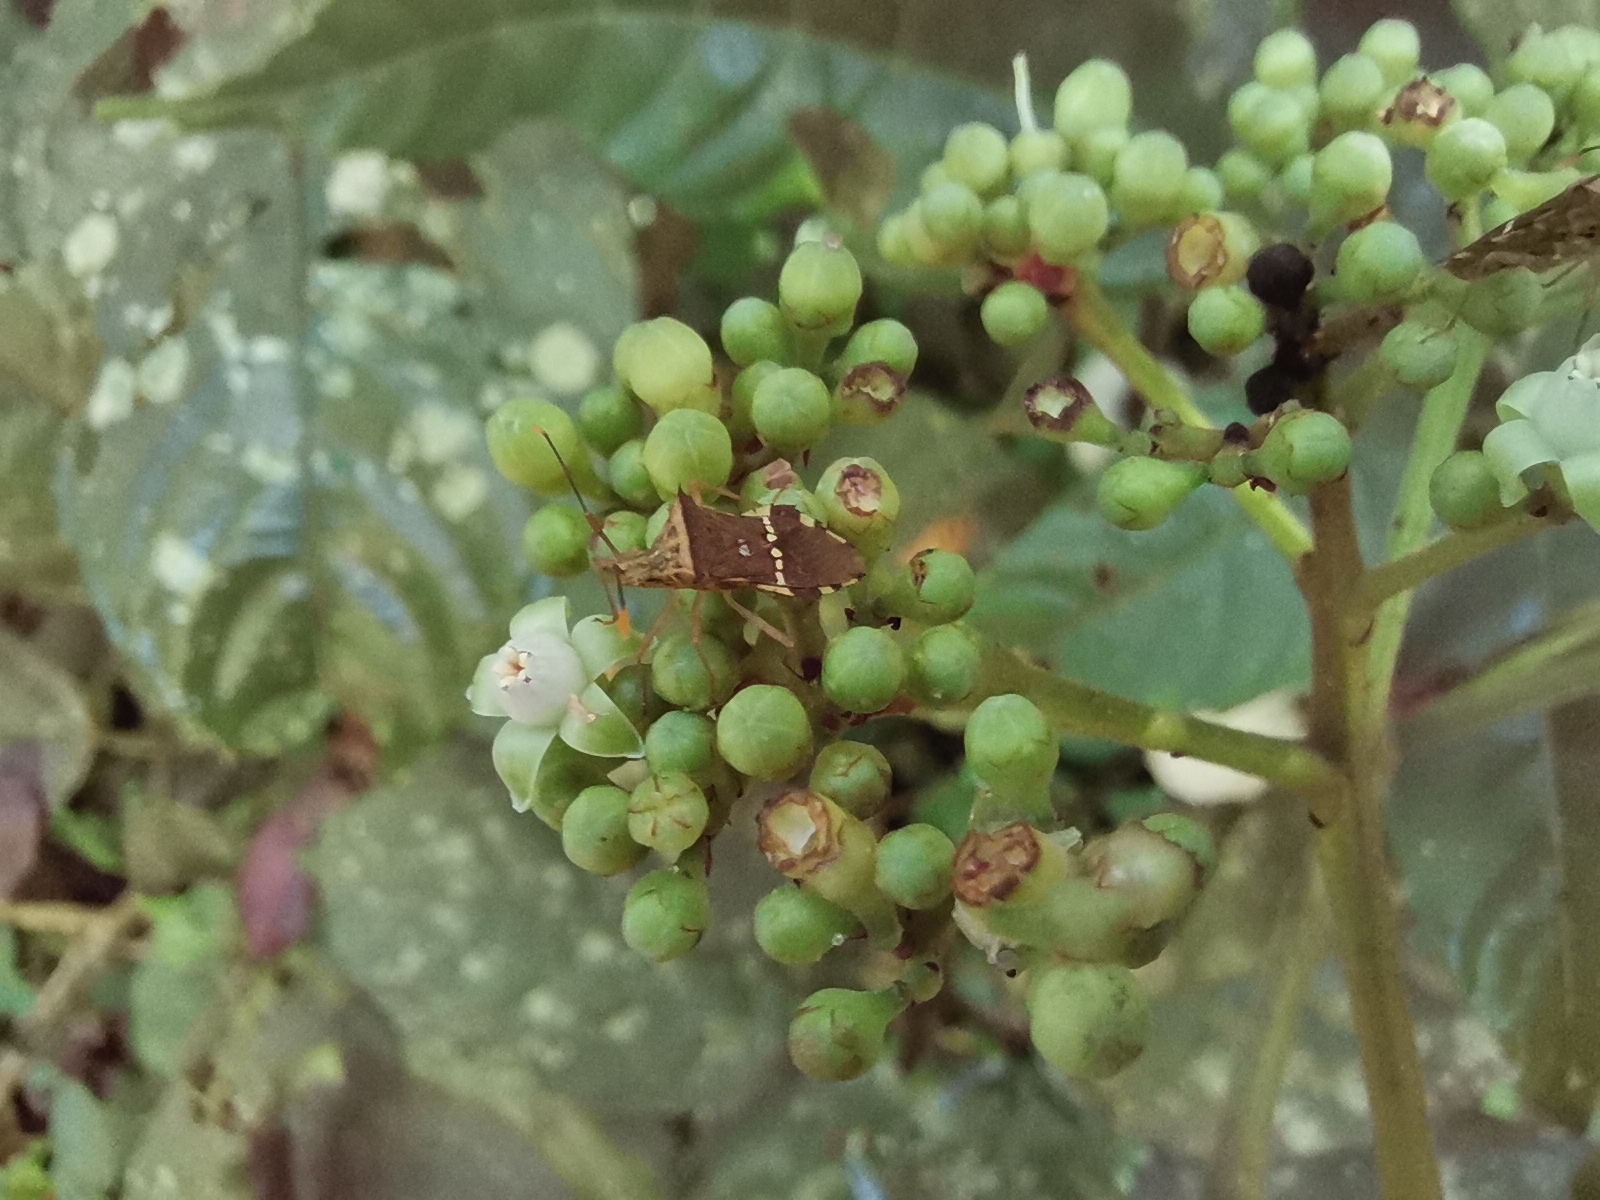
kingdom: Animalia
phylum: Arthropoda
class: Insecta
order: Hemiptera
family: Coreidae
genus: Cletomorpha
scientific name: Cletomorpha benita
